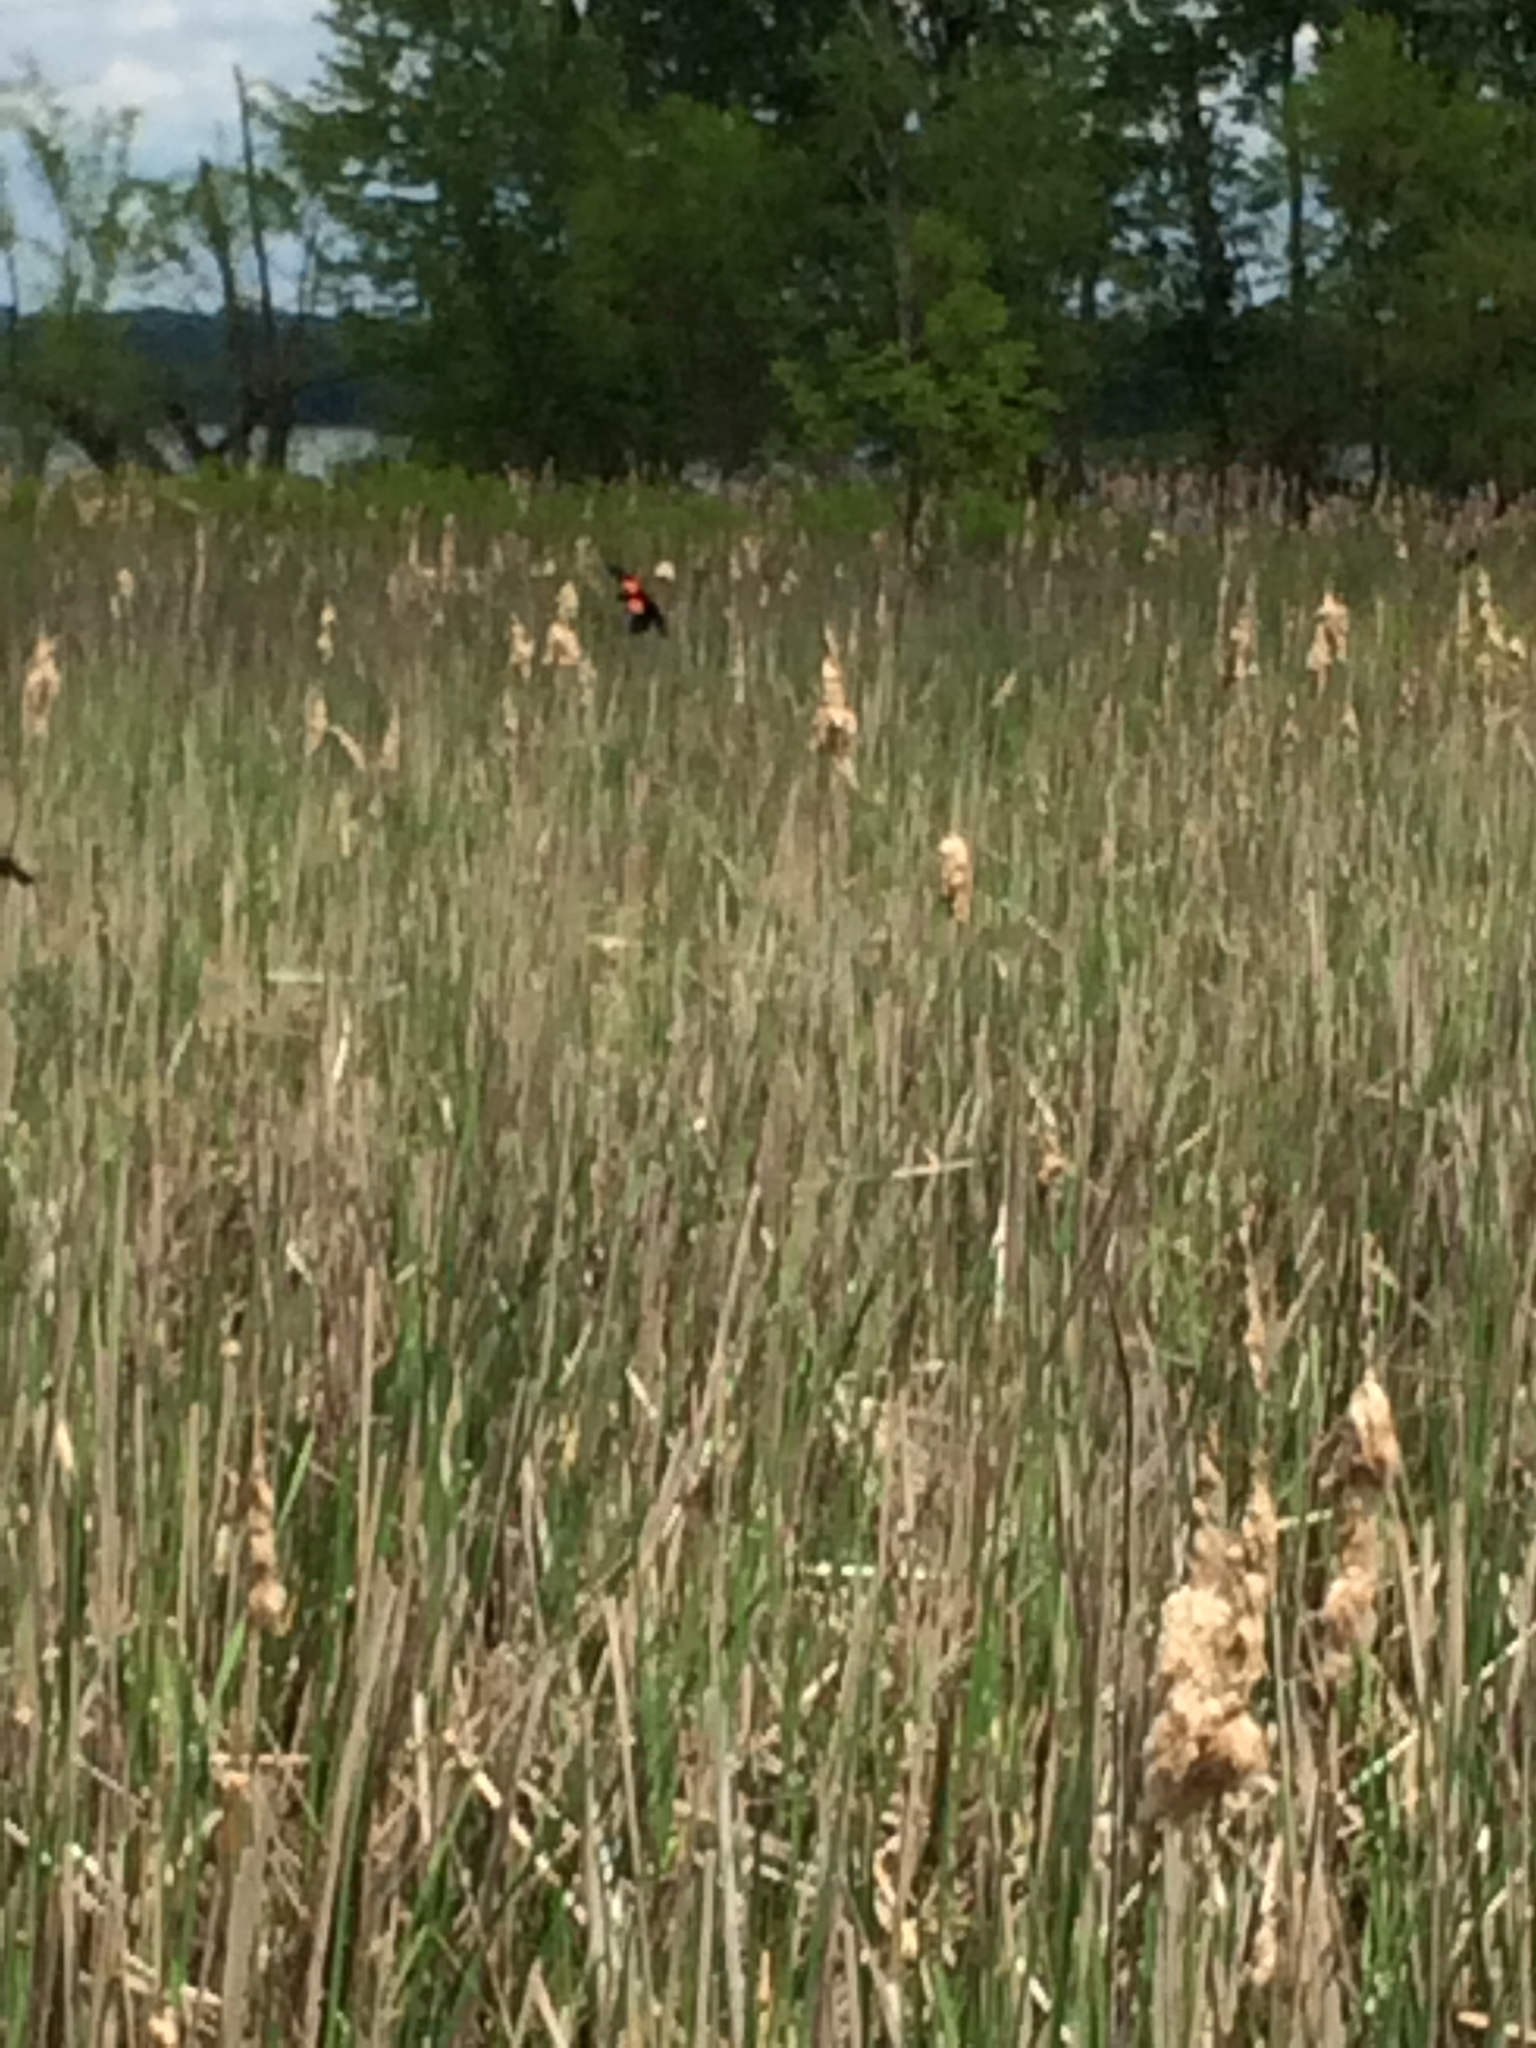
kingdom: Animalia
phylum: Chordata
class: Aves
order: Passeriformes
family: Icteridae
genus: Agelaius
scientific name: Agelaius phoeniceus
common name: Red-winged blackbird
